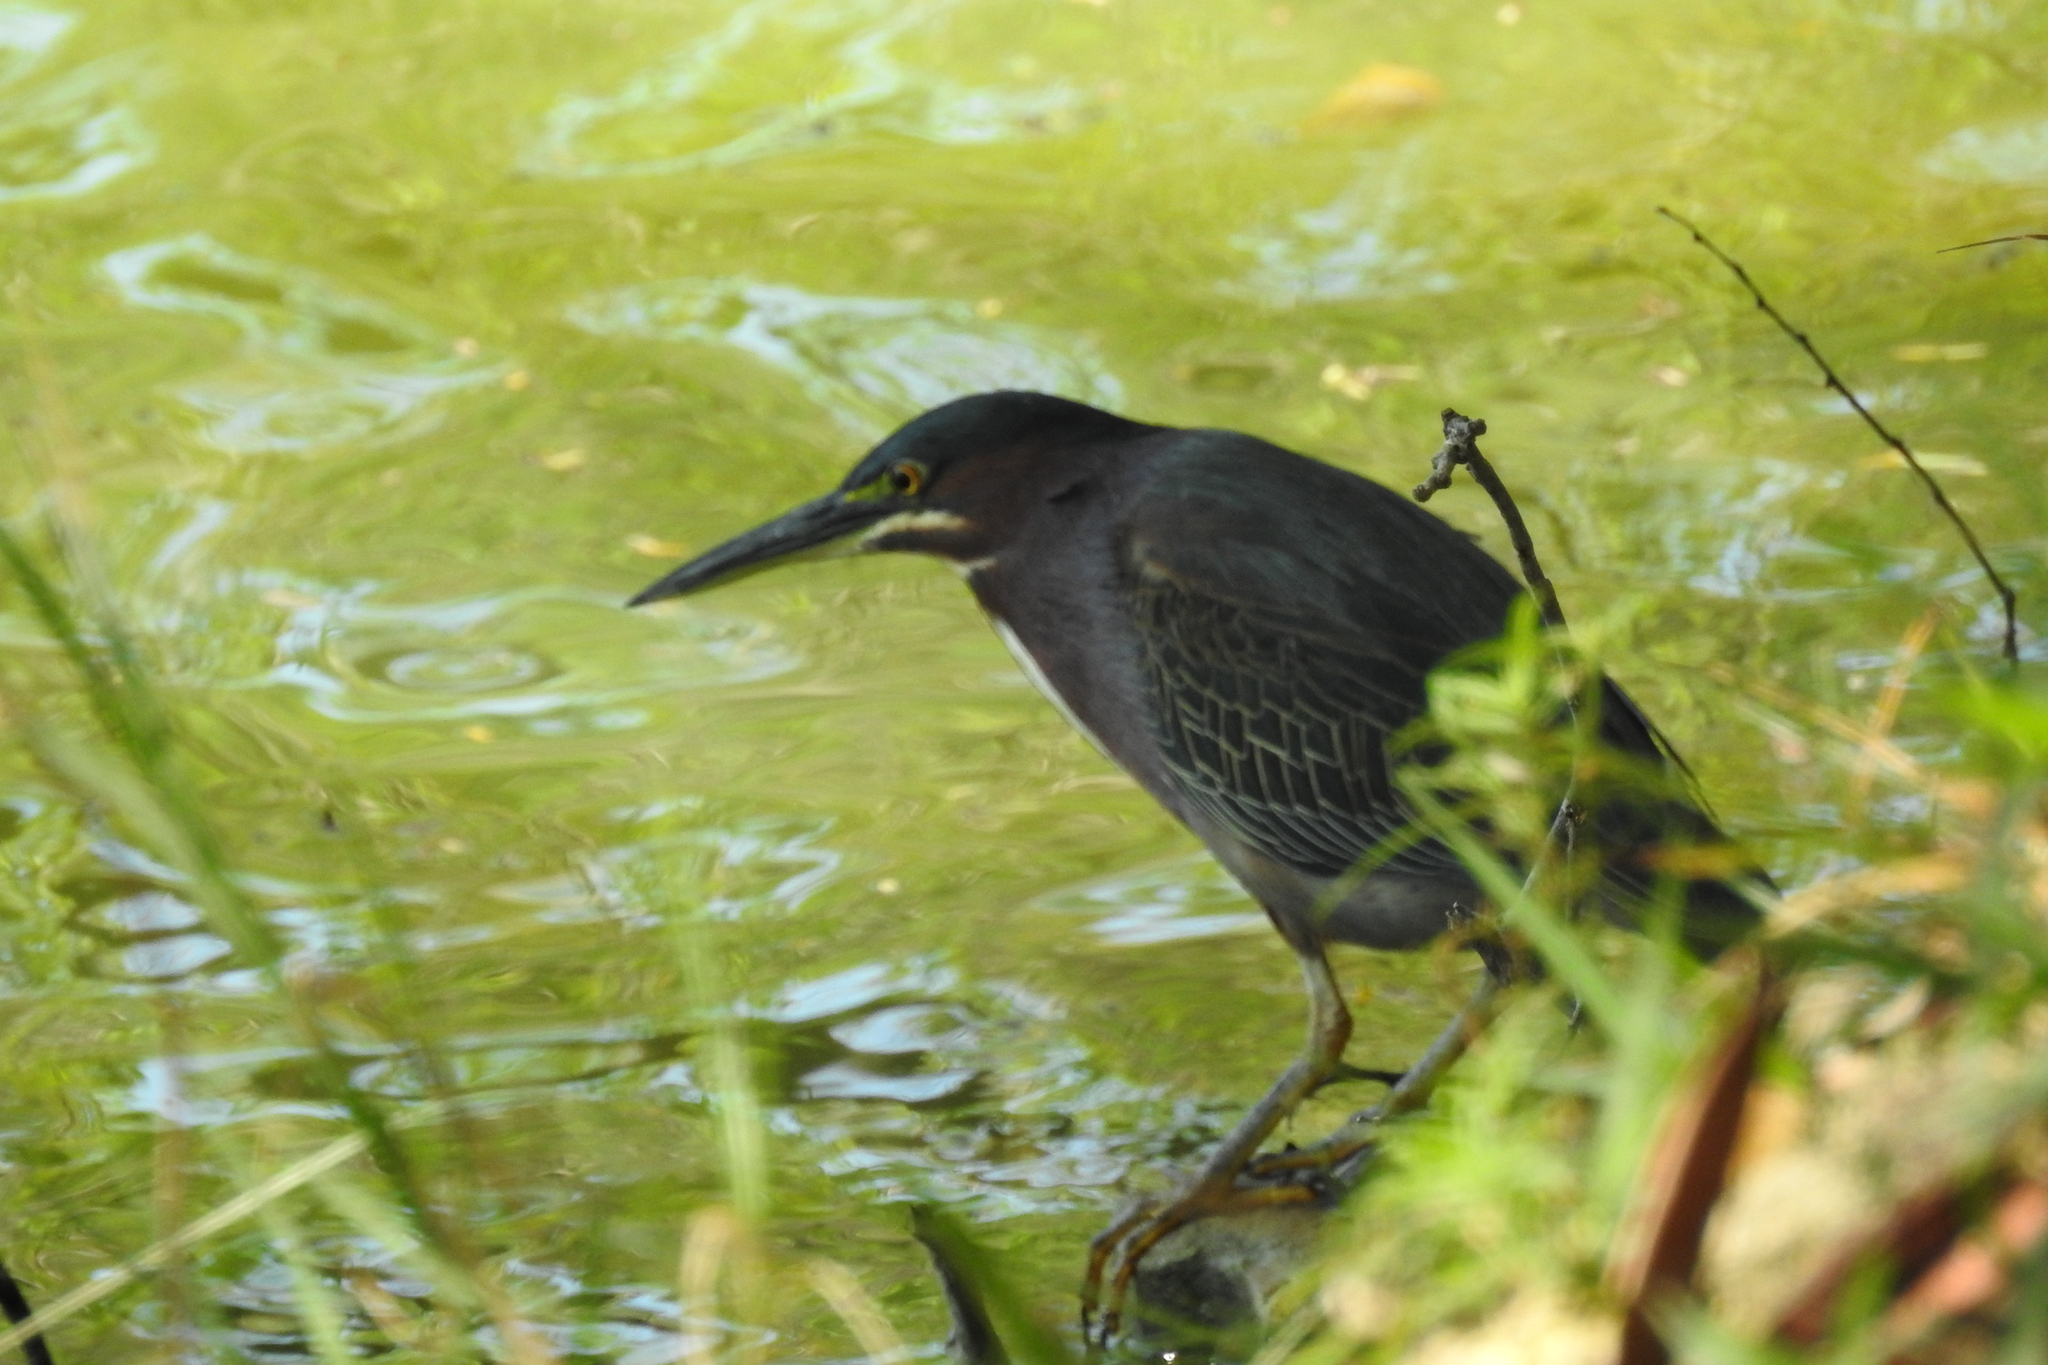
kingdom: Animalia
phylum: Chordata
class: Aves
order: Pelecaniformes
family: Ardeidae
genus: Butorides
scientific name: Butorides virescens
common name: Green heron
